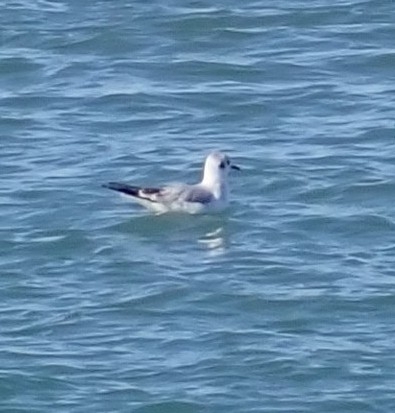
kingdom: Animalia
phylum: Chordata
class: Aves
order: Charadriiformes
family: Laridae
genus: Chroicocephalus
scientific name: Chroicocephalus philadelphia
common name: Bonaparte's gull
